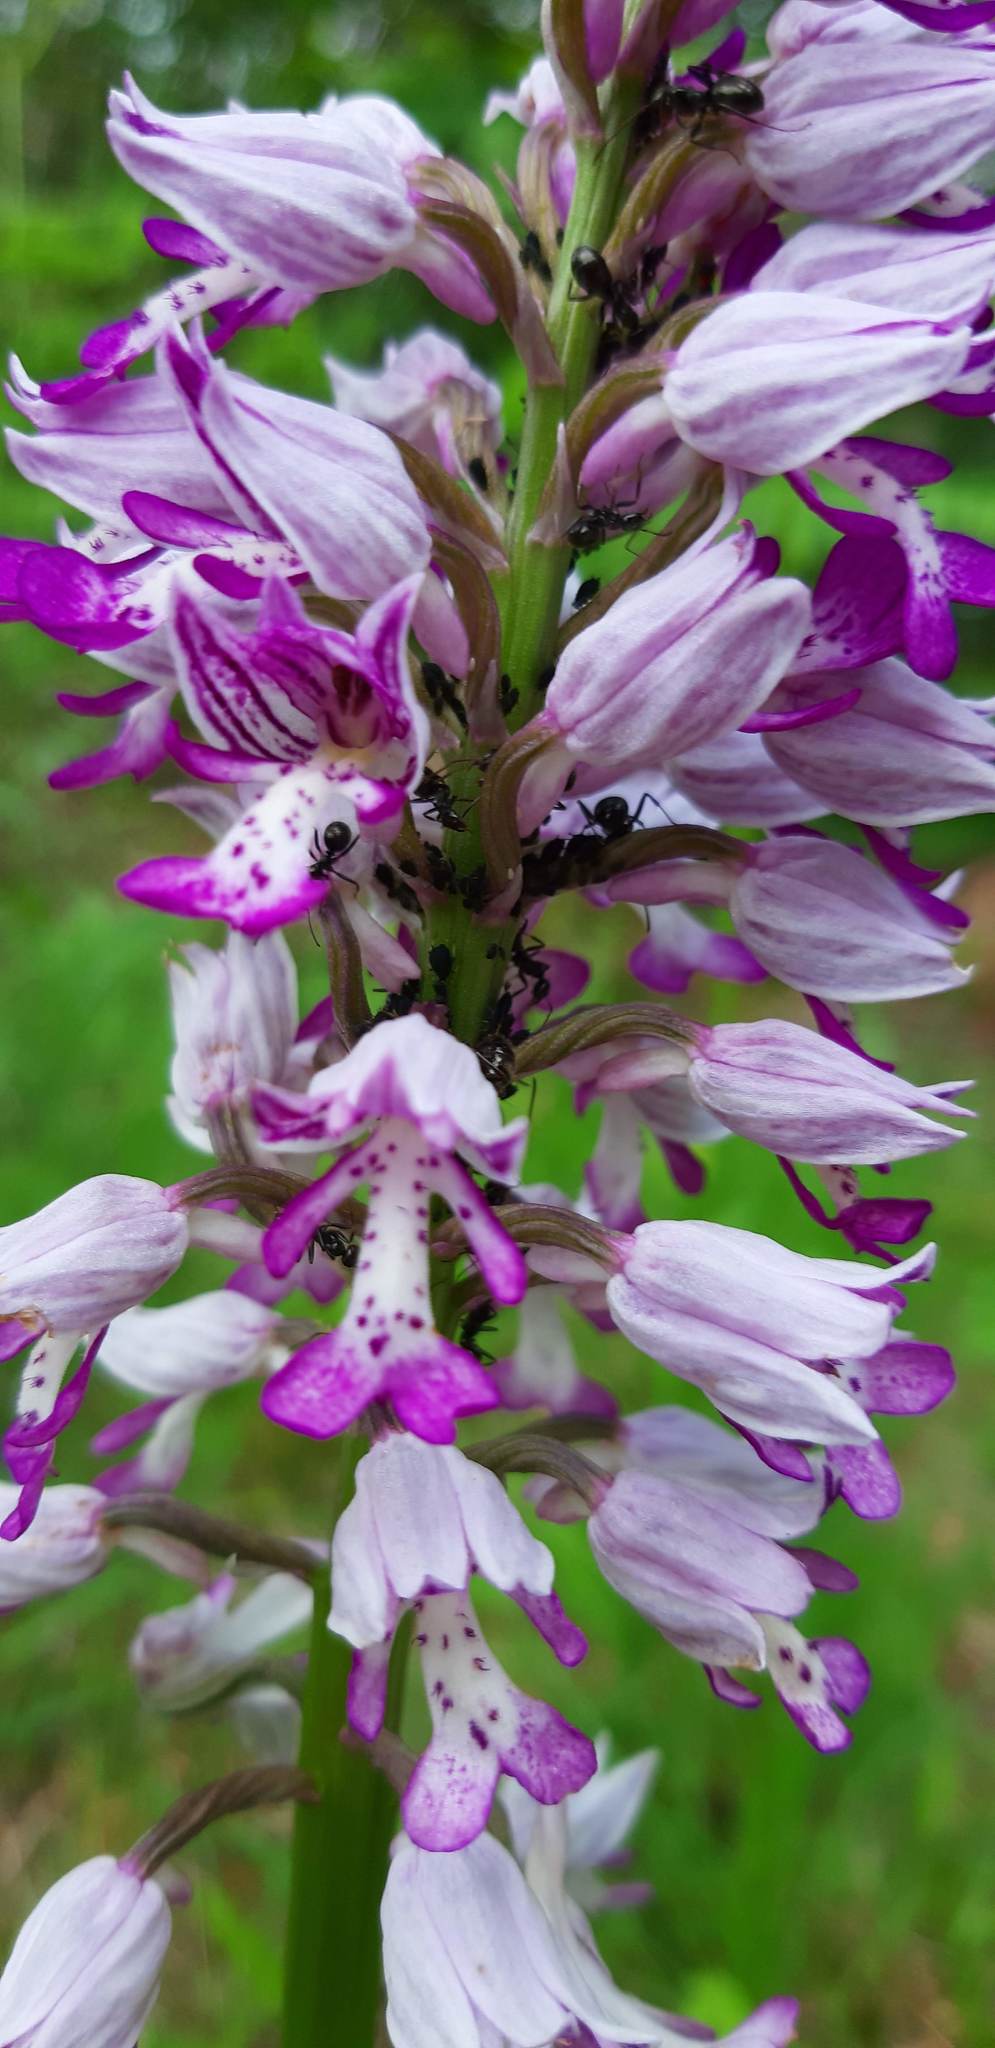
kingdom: Plantae
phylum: Tracheophyta
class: Liliopsida
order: Asparagales
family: Orchidaceae
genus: Orchis
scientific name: Orchis militaris
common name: Military orchid
